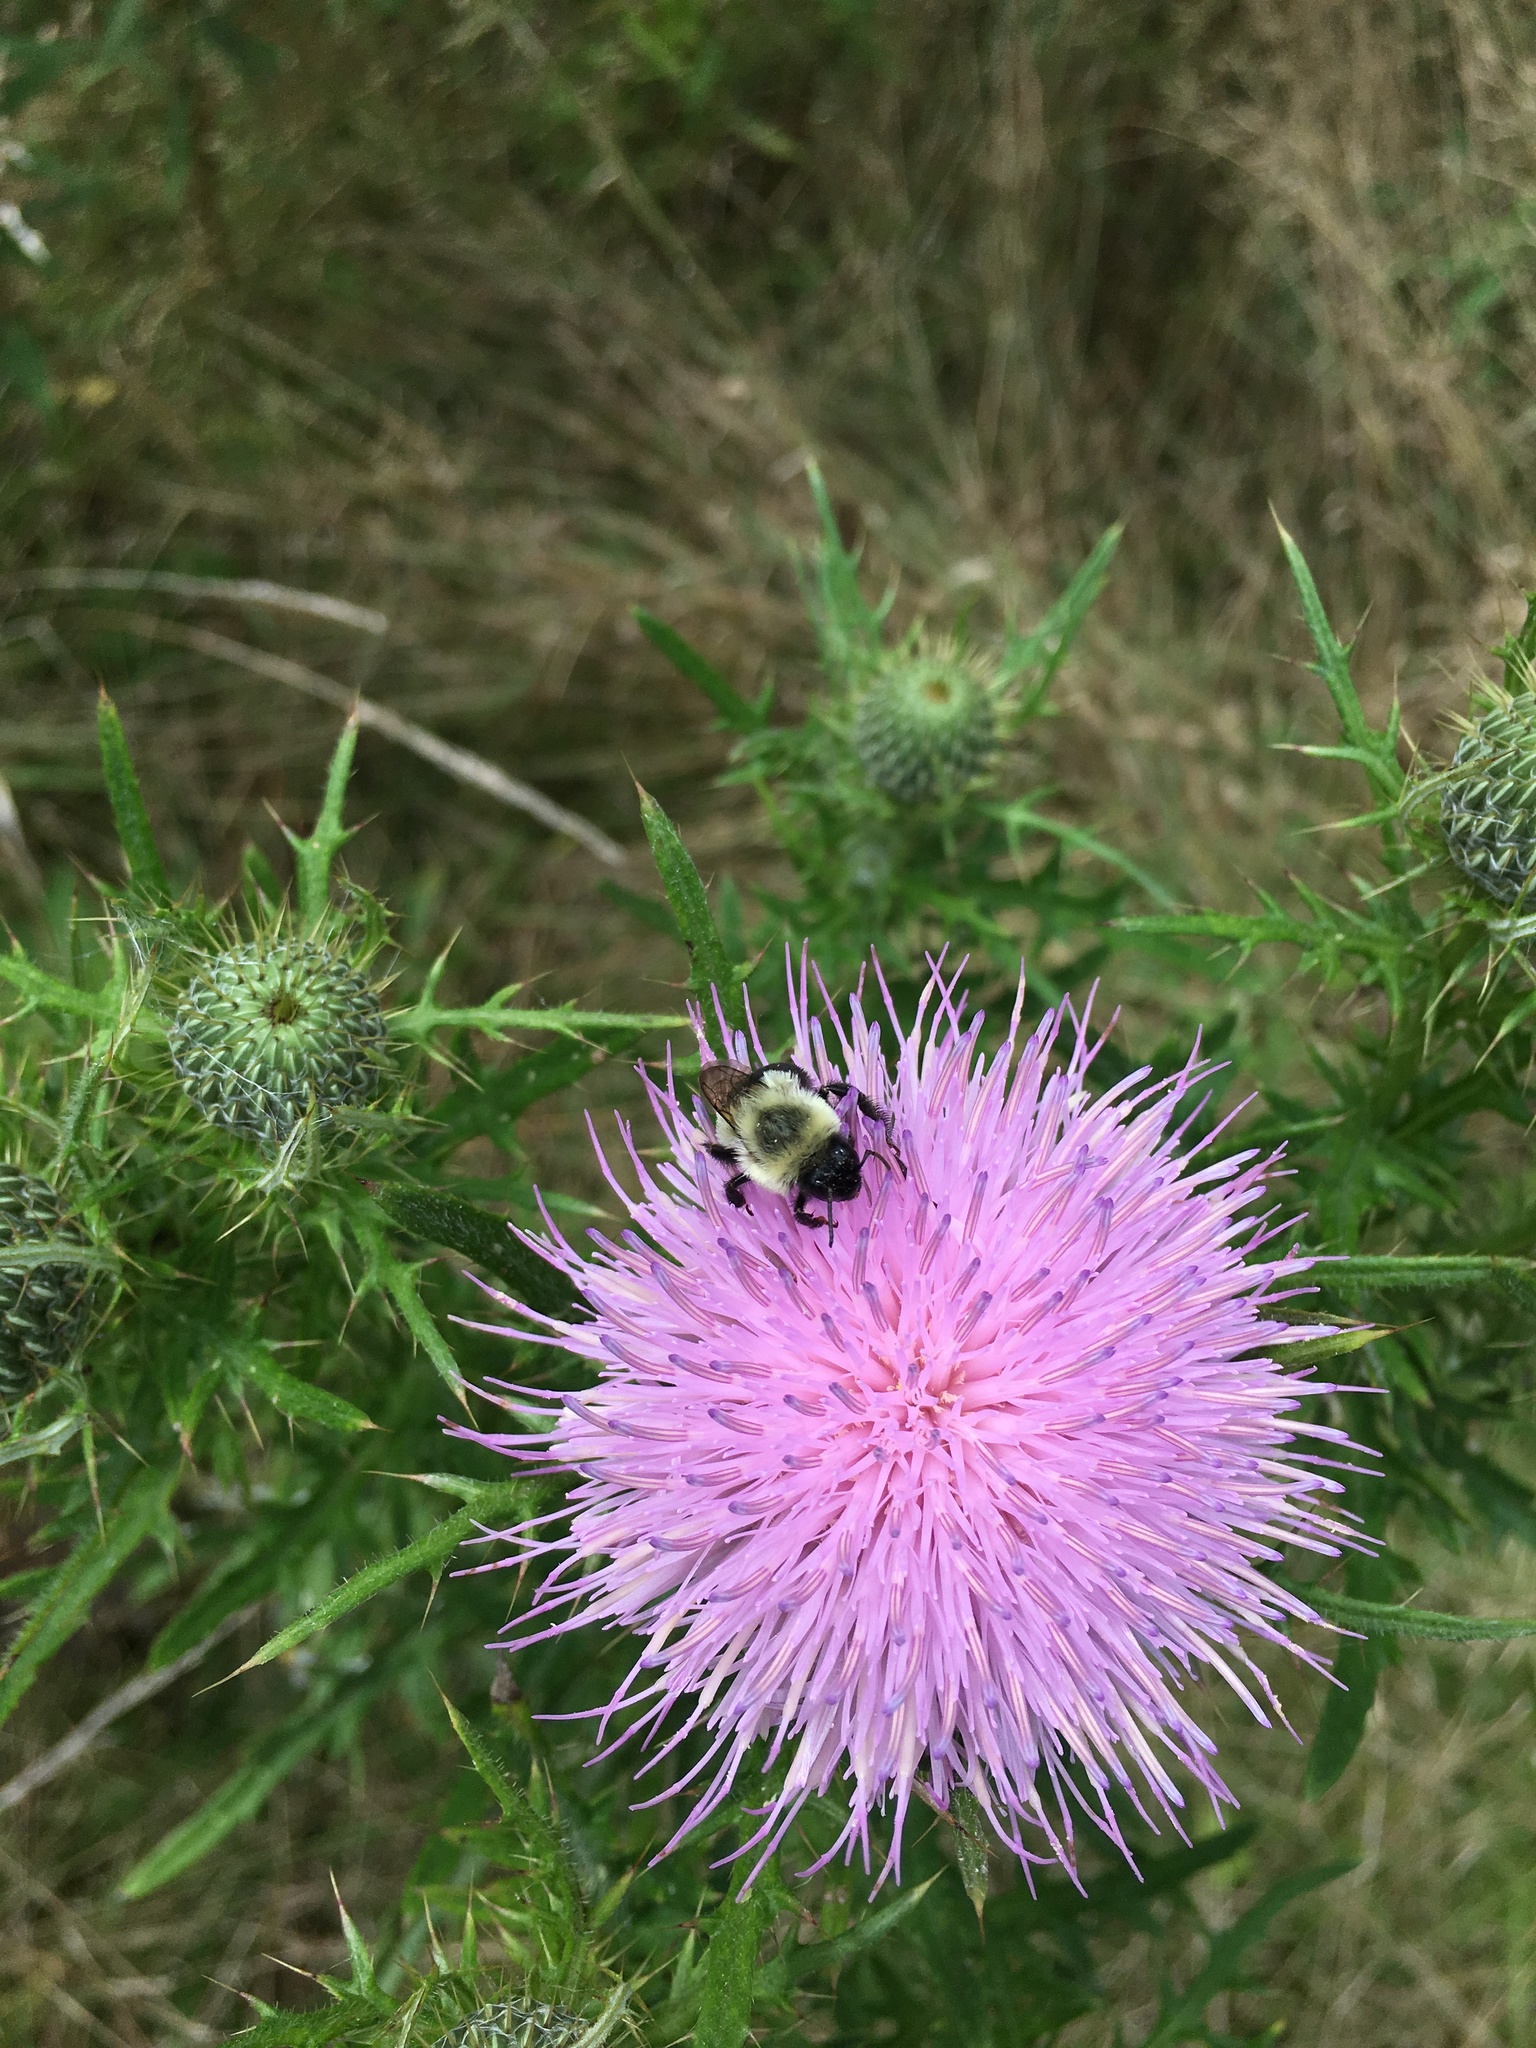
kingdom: Animalia
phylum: Arthropoda
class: Insecta
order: Hymenoptera
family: Apidae
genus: Bombus
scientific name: Bombus impatiens
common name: Common eastern bumble bee
